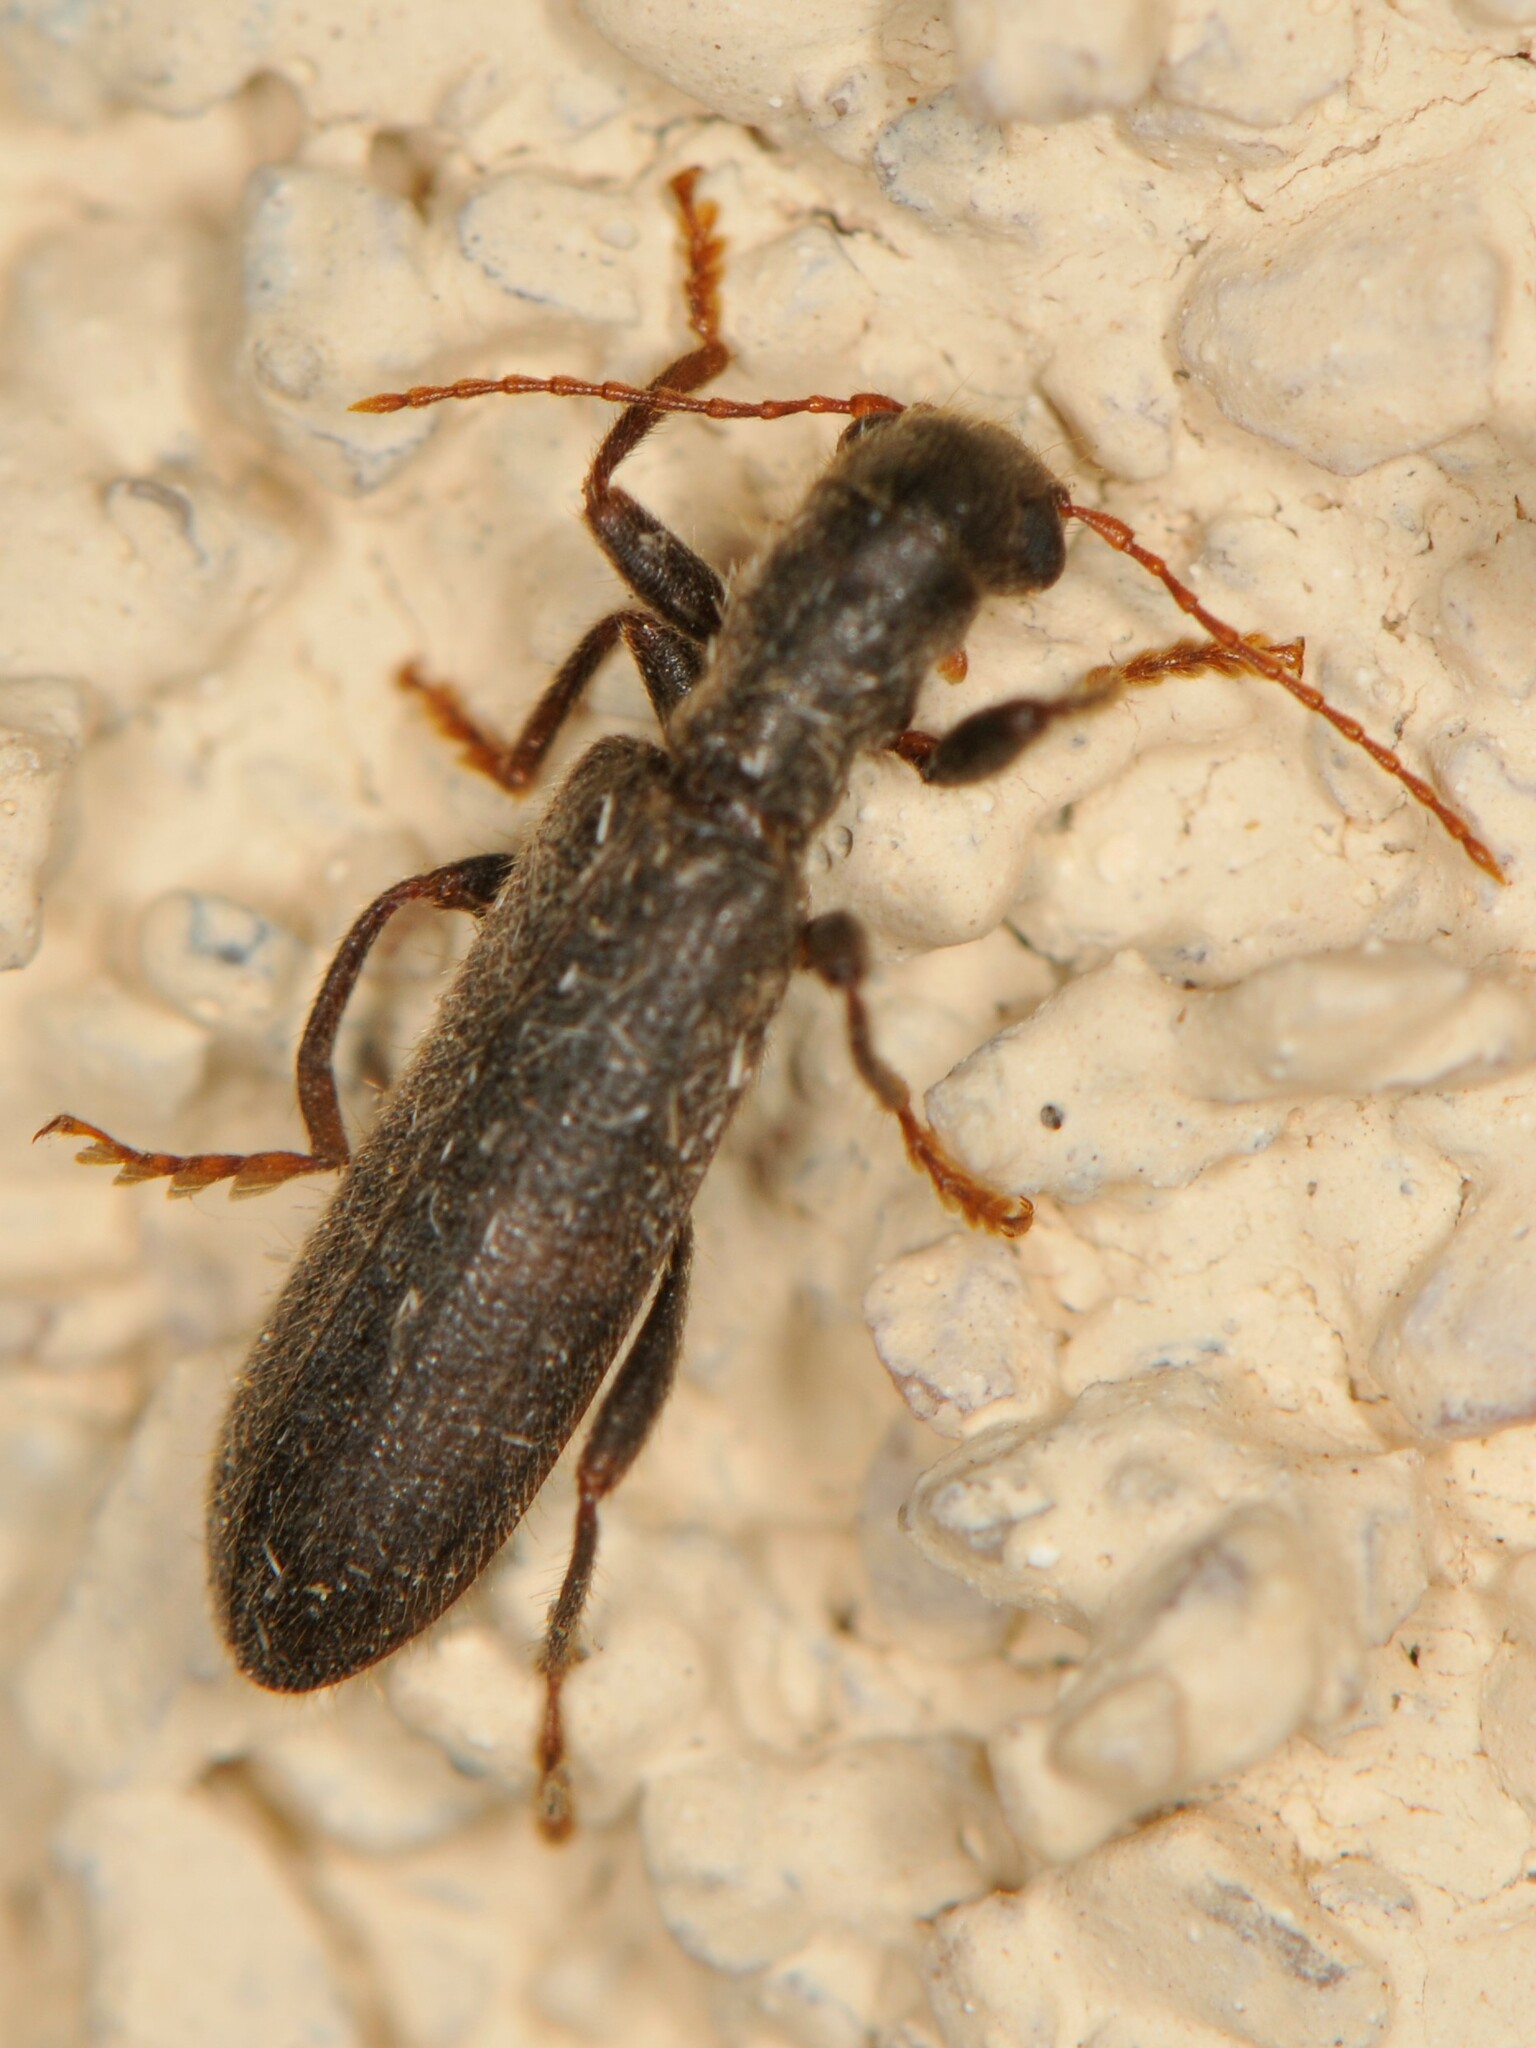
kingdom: Animalia
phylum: Arthropoda
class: Insecta
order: Coleoptera
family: Cleridae
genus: Cymatodera
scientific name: Cymatodera
